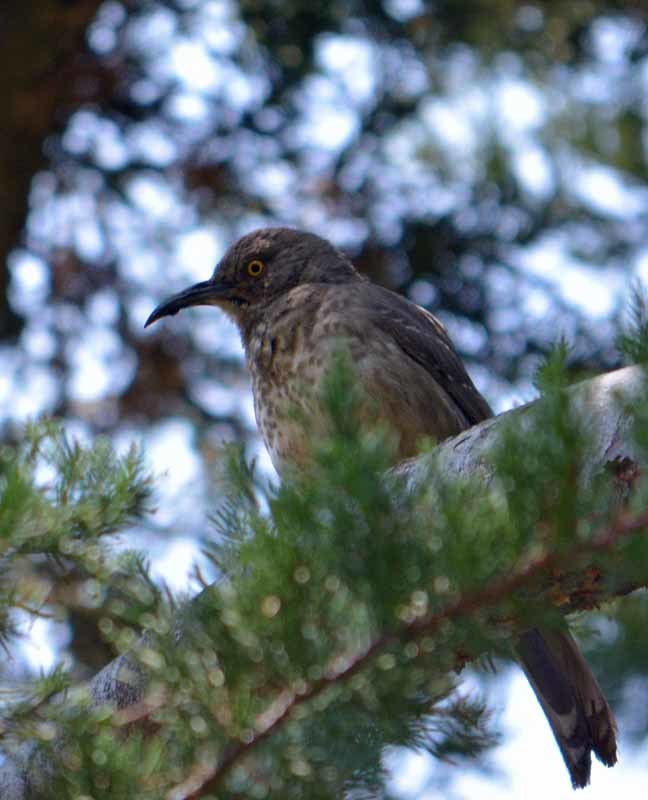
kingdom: Animalia
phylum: Chordata
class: Aves
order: Passeriformes
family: Mimidae
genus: Toxostoma
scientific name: Toxostoma curvirostre
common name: Curve-billed thrasher
